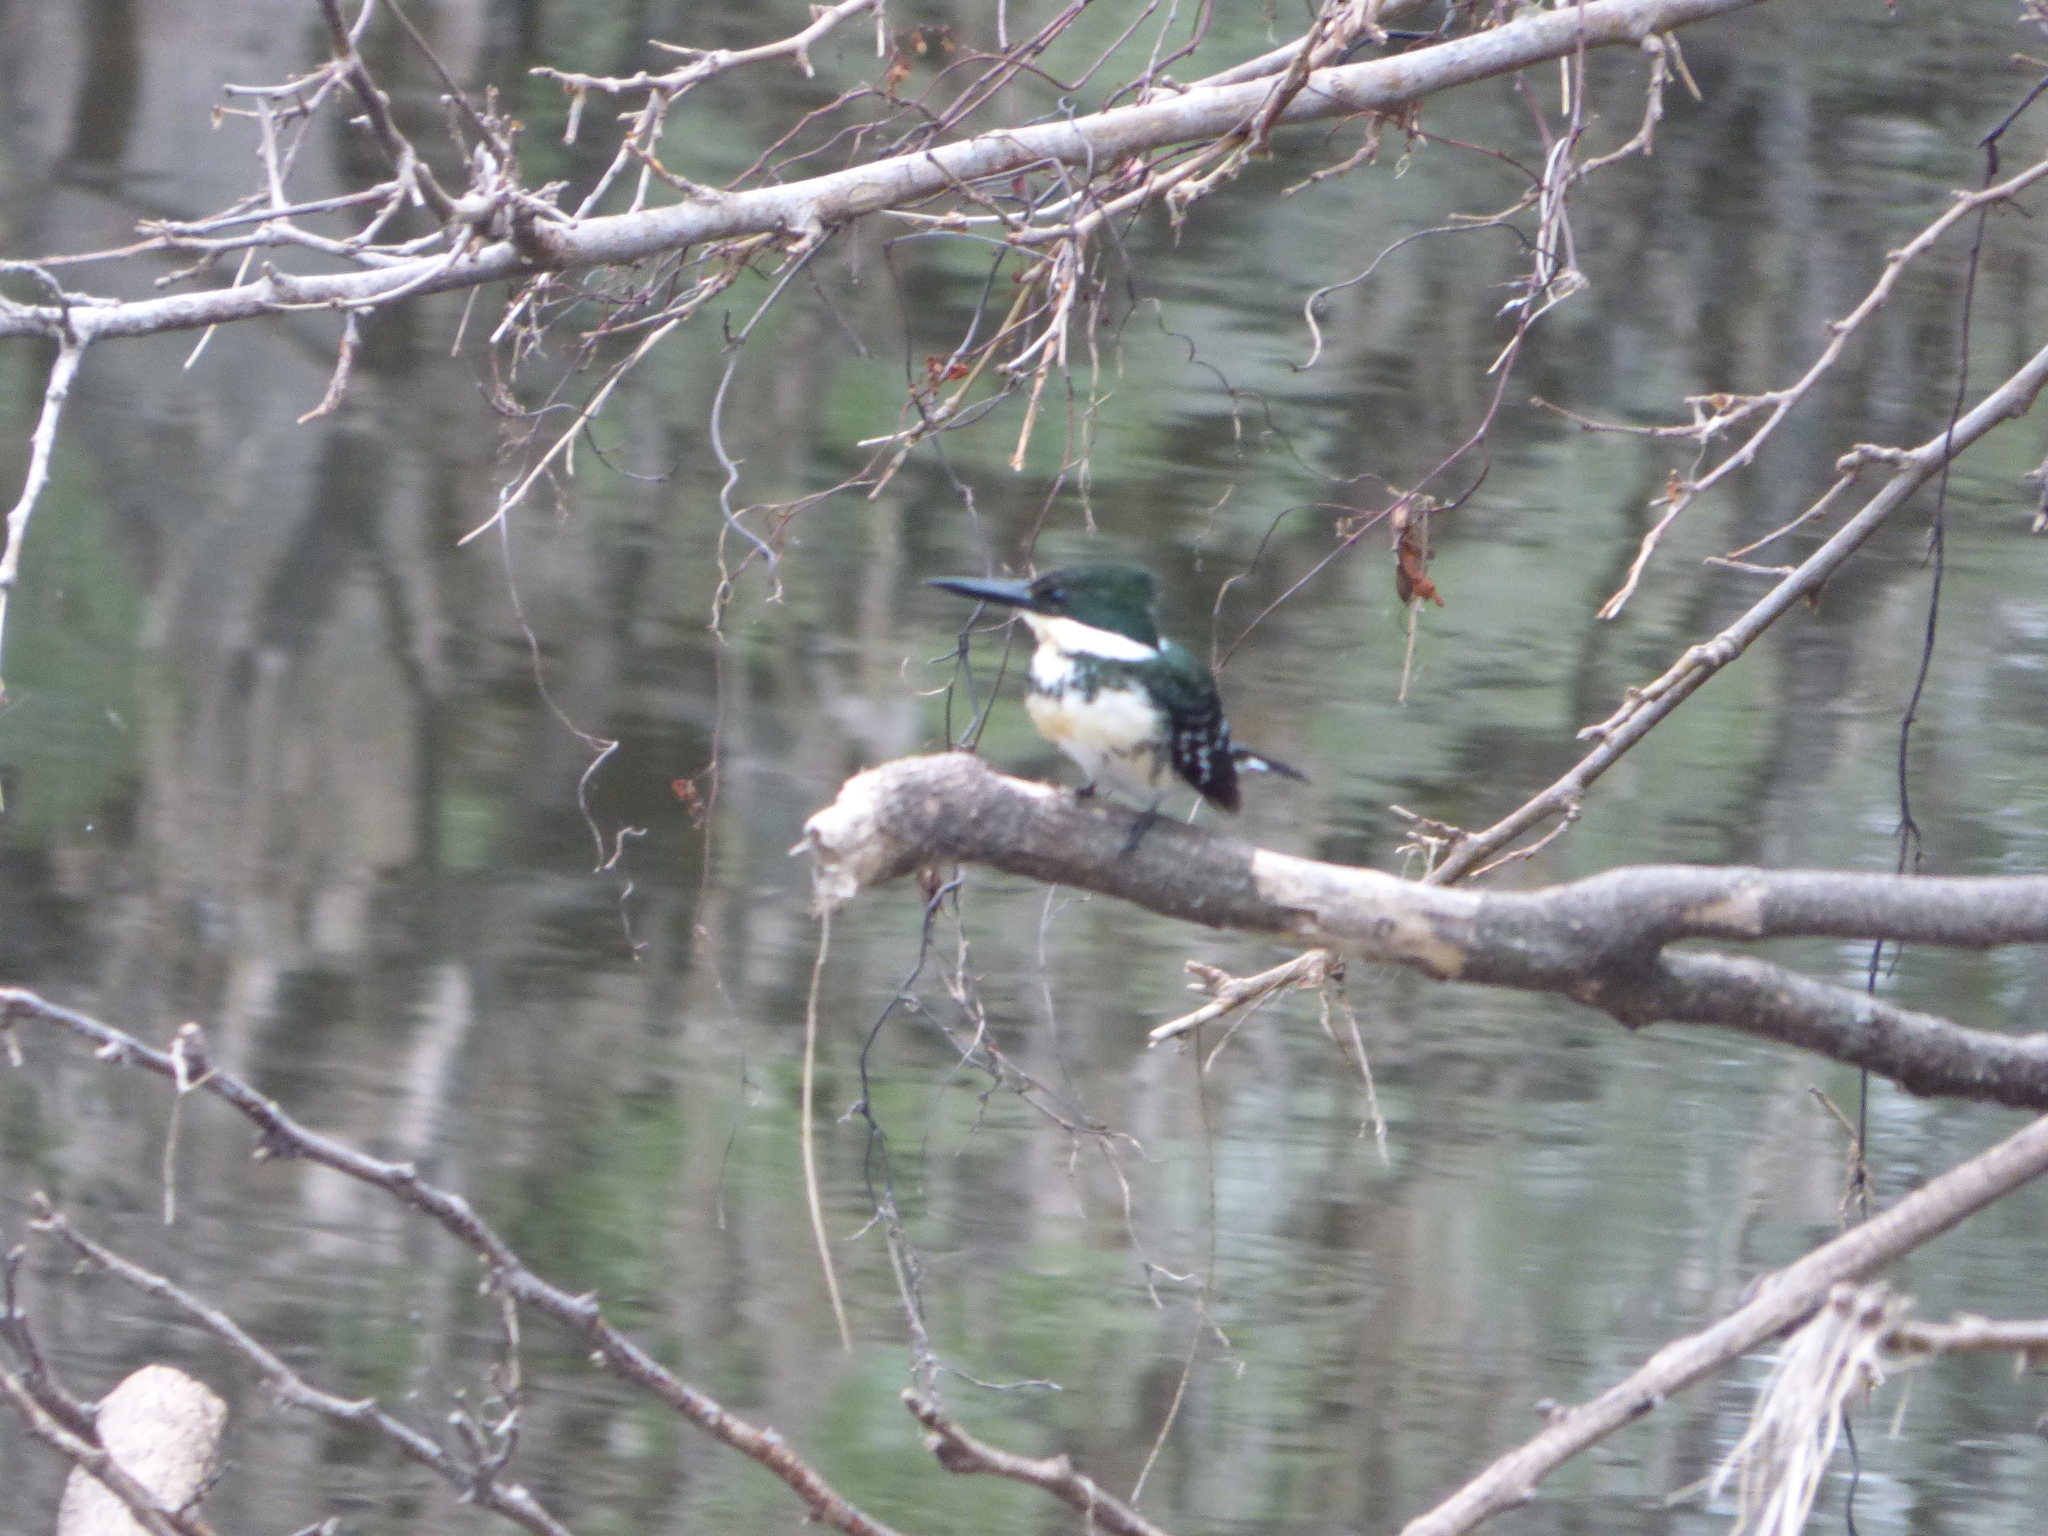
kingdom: Animalia
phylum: Chordata
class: Aves
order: Coraciiformes
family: Alcedinidae
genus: Chloroceryle
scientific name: Chloroceryle americana
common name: Green kingfisher
